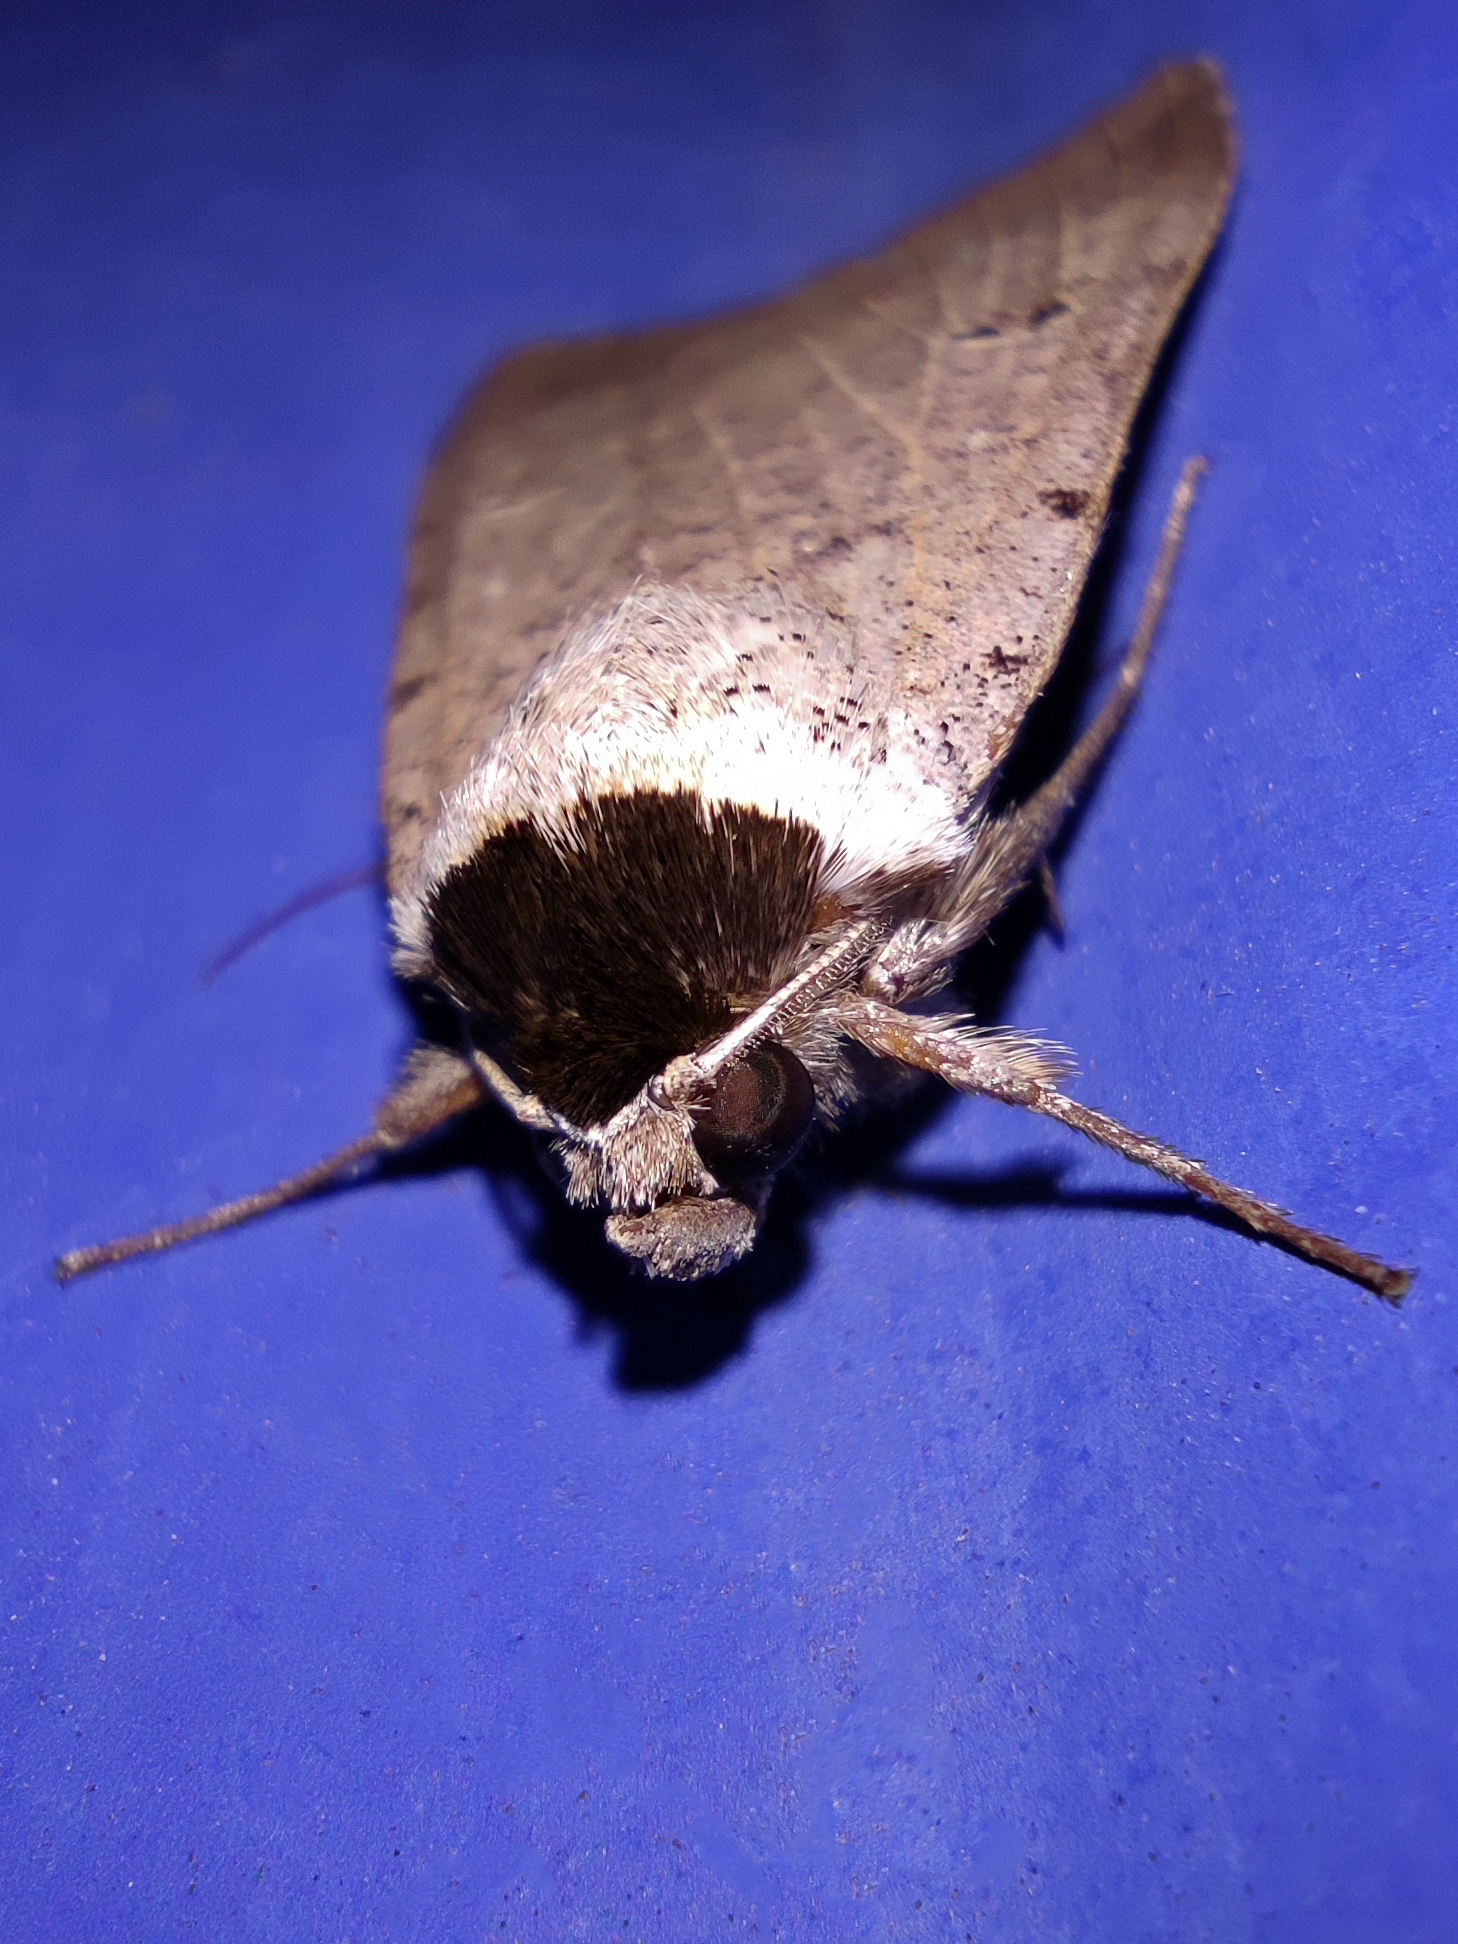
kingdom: Animalia
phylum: Arthropoda
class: Insecta
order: Lepidoptera
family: Erebidae
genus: Lygephila
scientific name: Lygephila craccae
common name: Scarce blackneck
